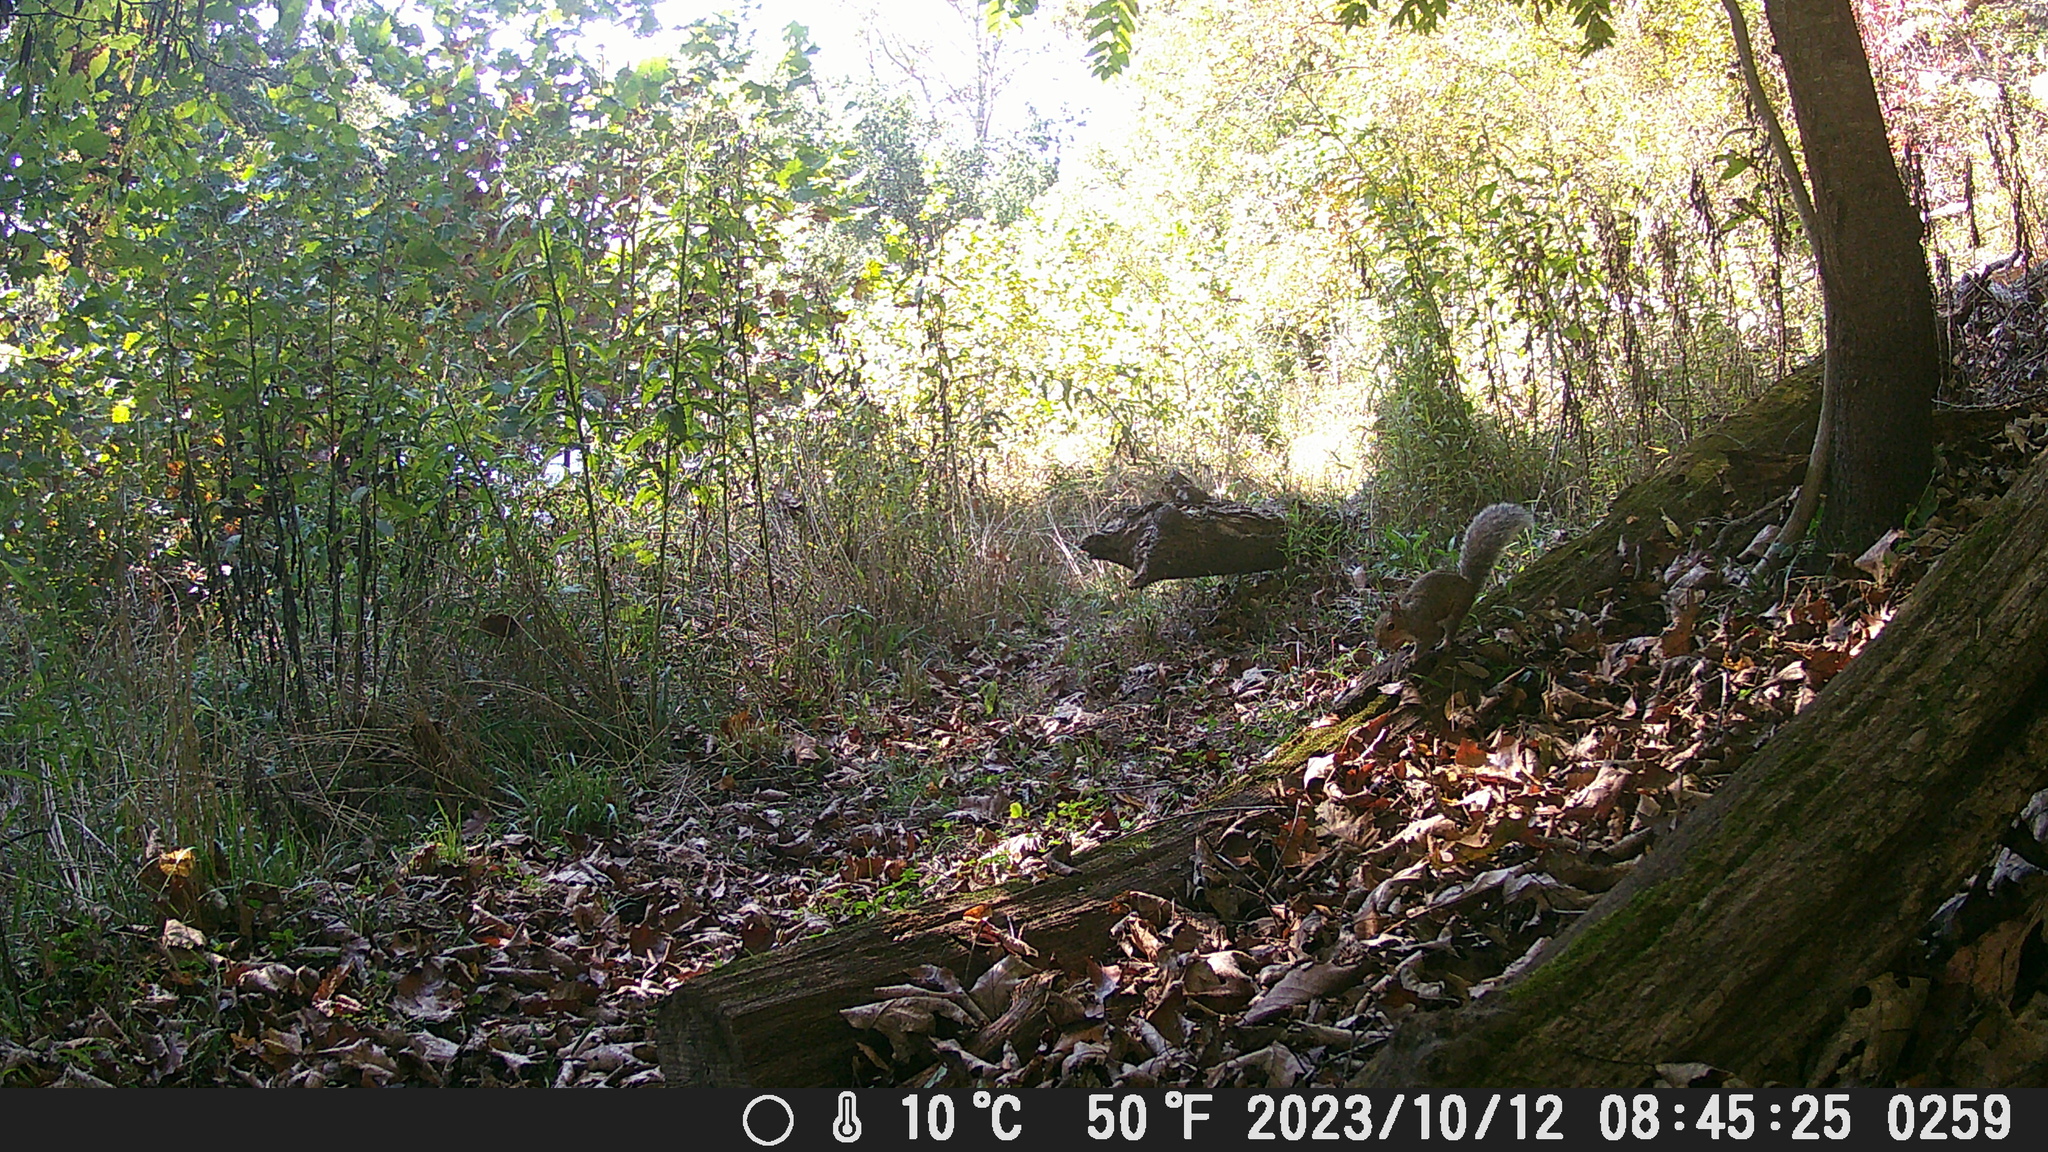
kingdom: Animalia
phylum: Chordata
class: Mammalia
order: Rodentia
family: Sciuridae
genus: Sciurus
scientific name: Sciurus carolinensis
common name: Eastern gray squirrel
